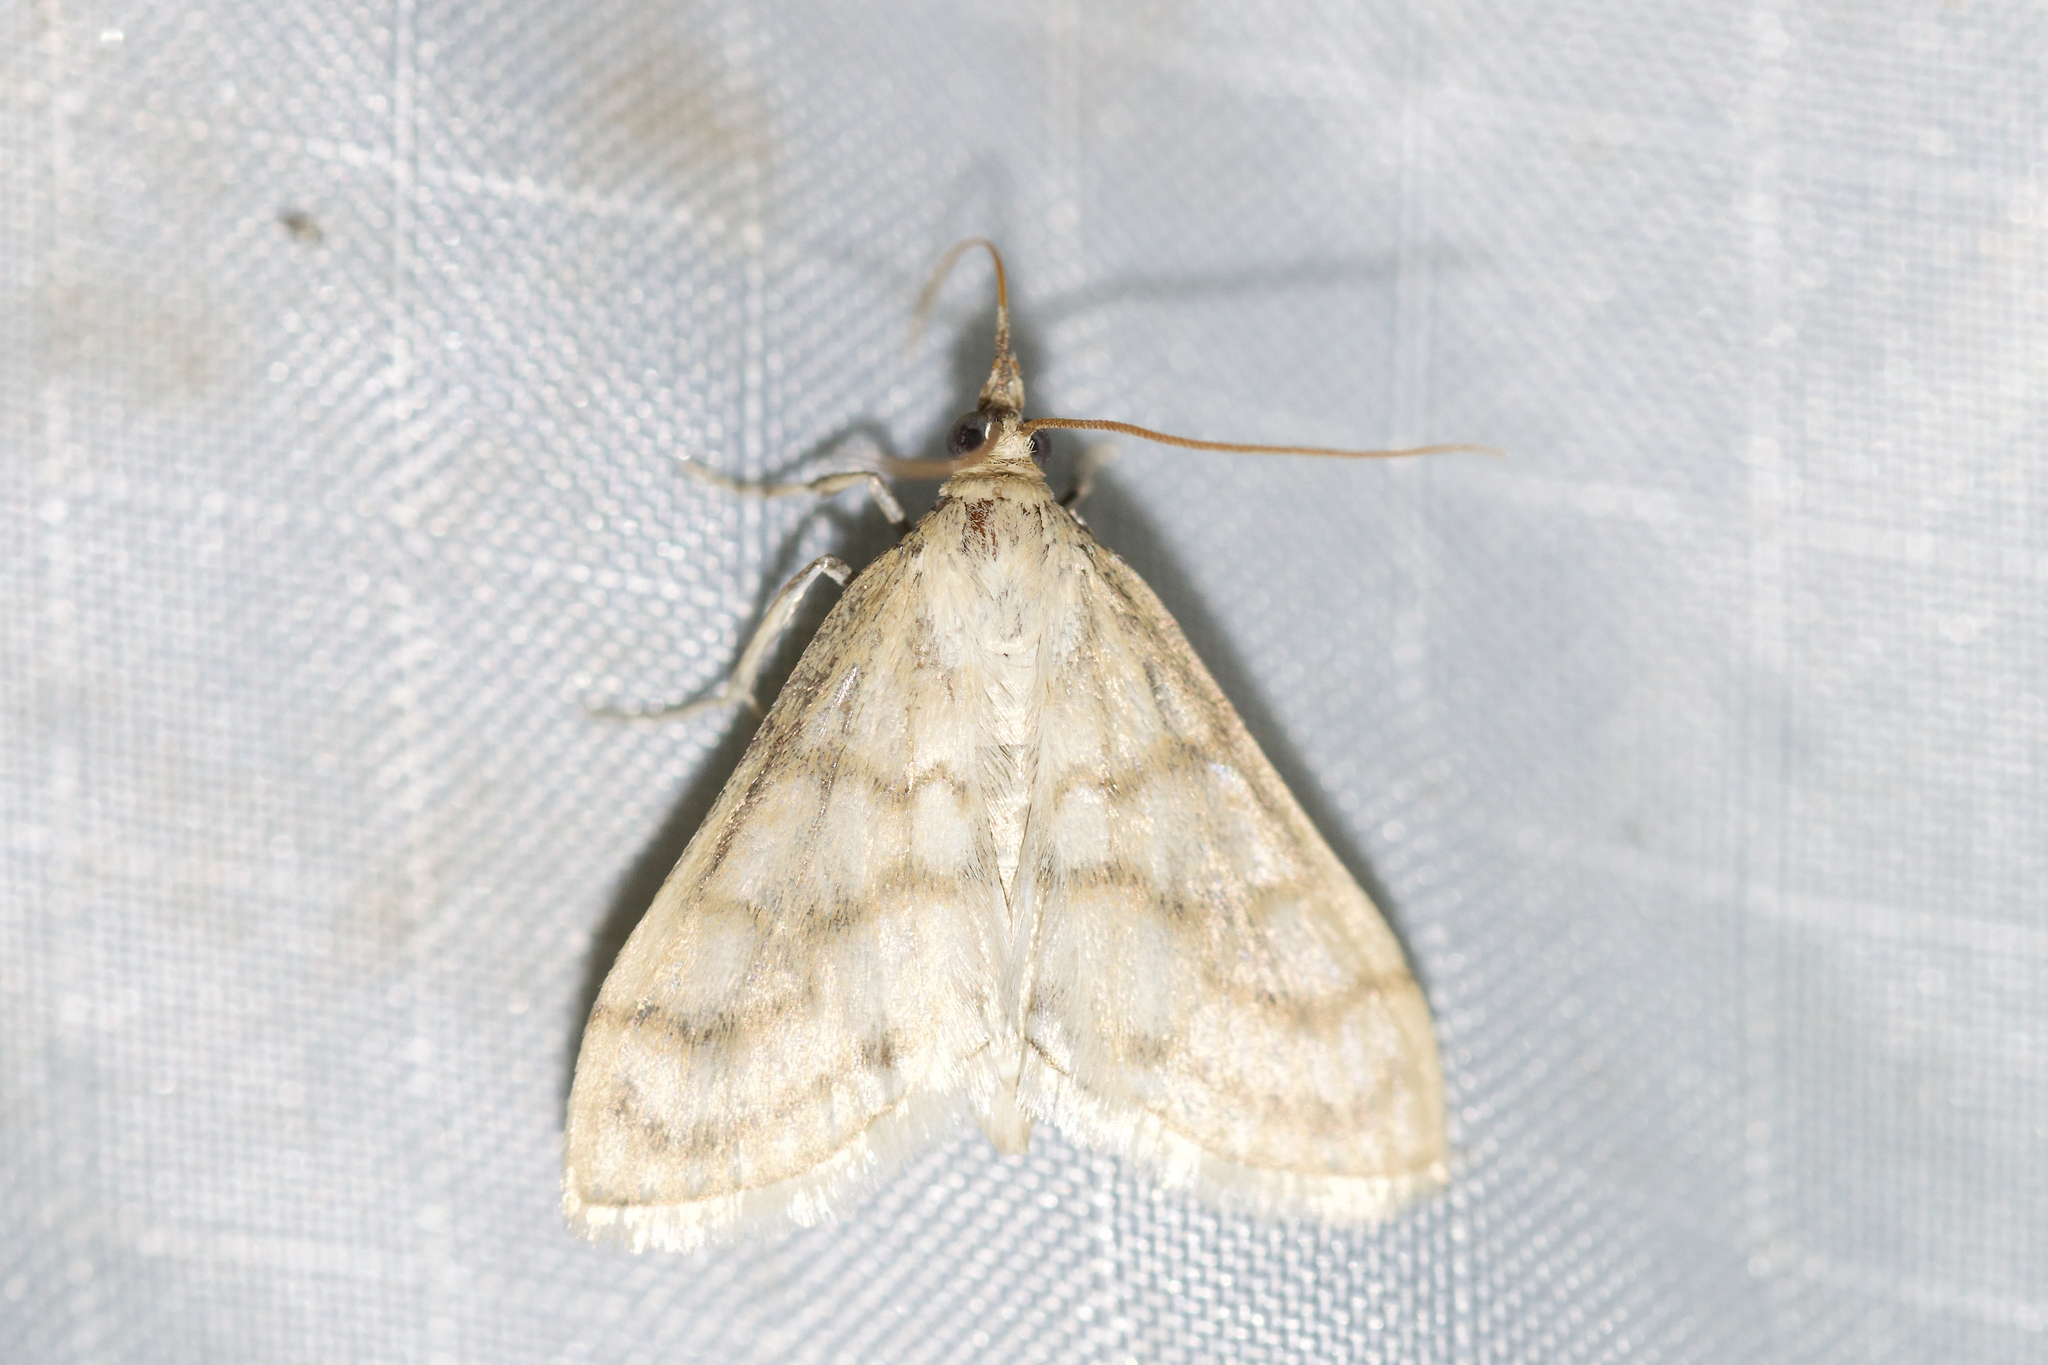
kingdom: Animalia
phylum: Arthropoda
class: Insecta
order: Lepidoptera
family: Crambidae
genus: Paracorsia
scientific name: Paracorsia repandalis
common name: Mullein moth
